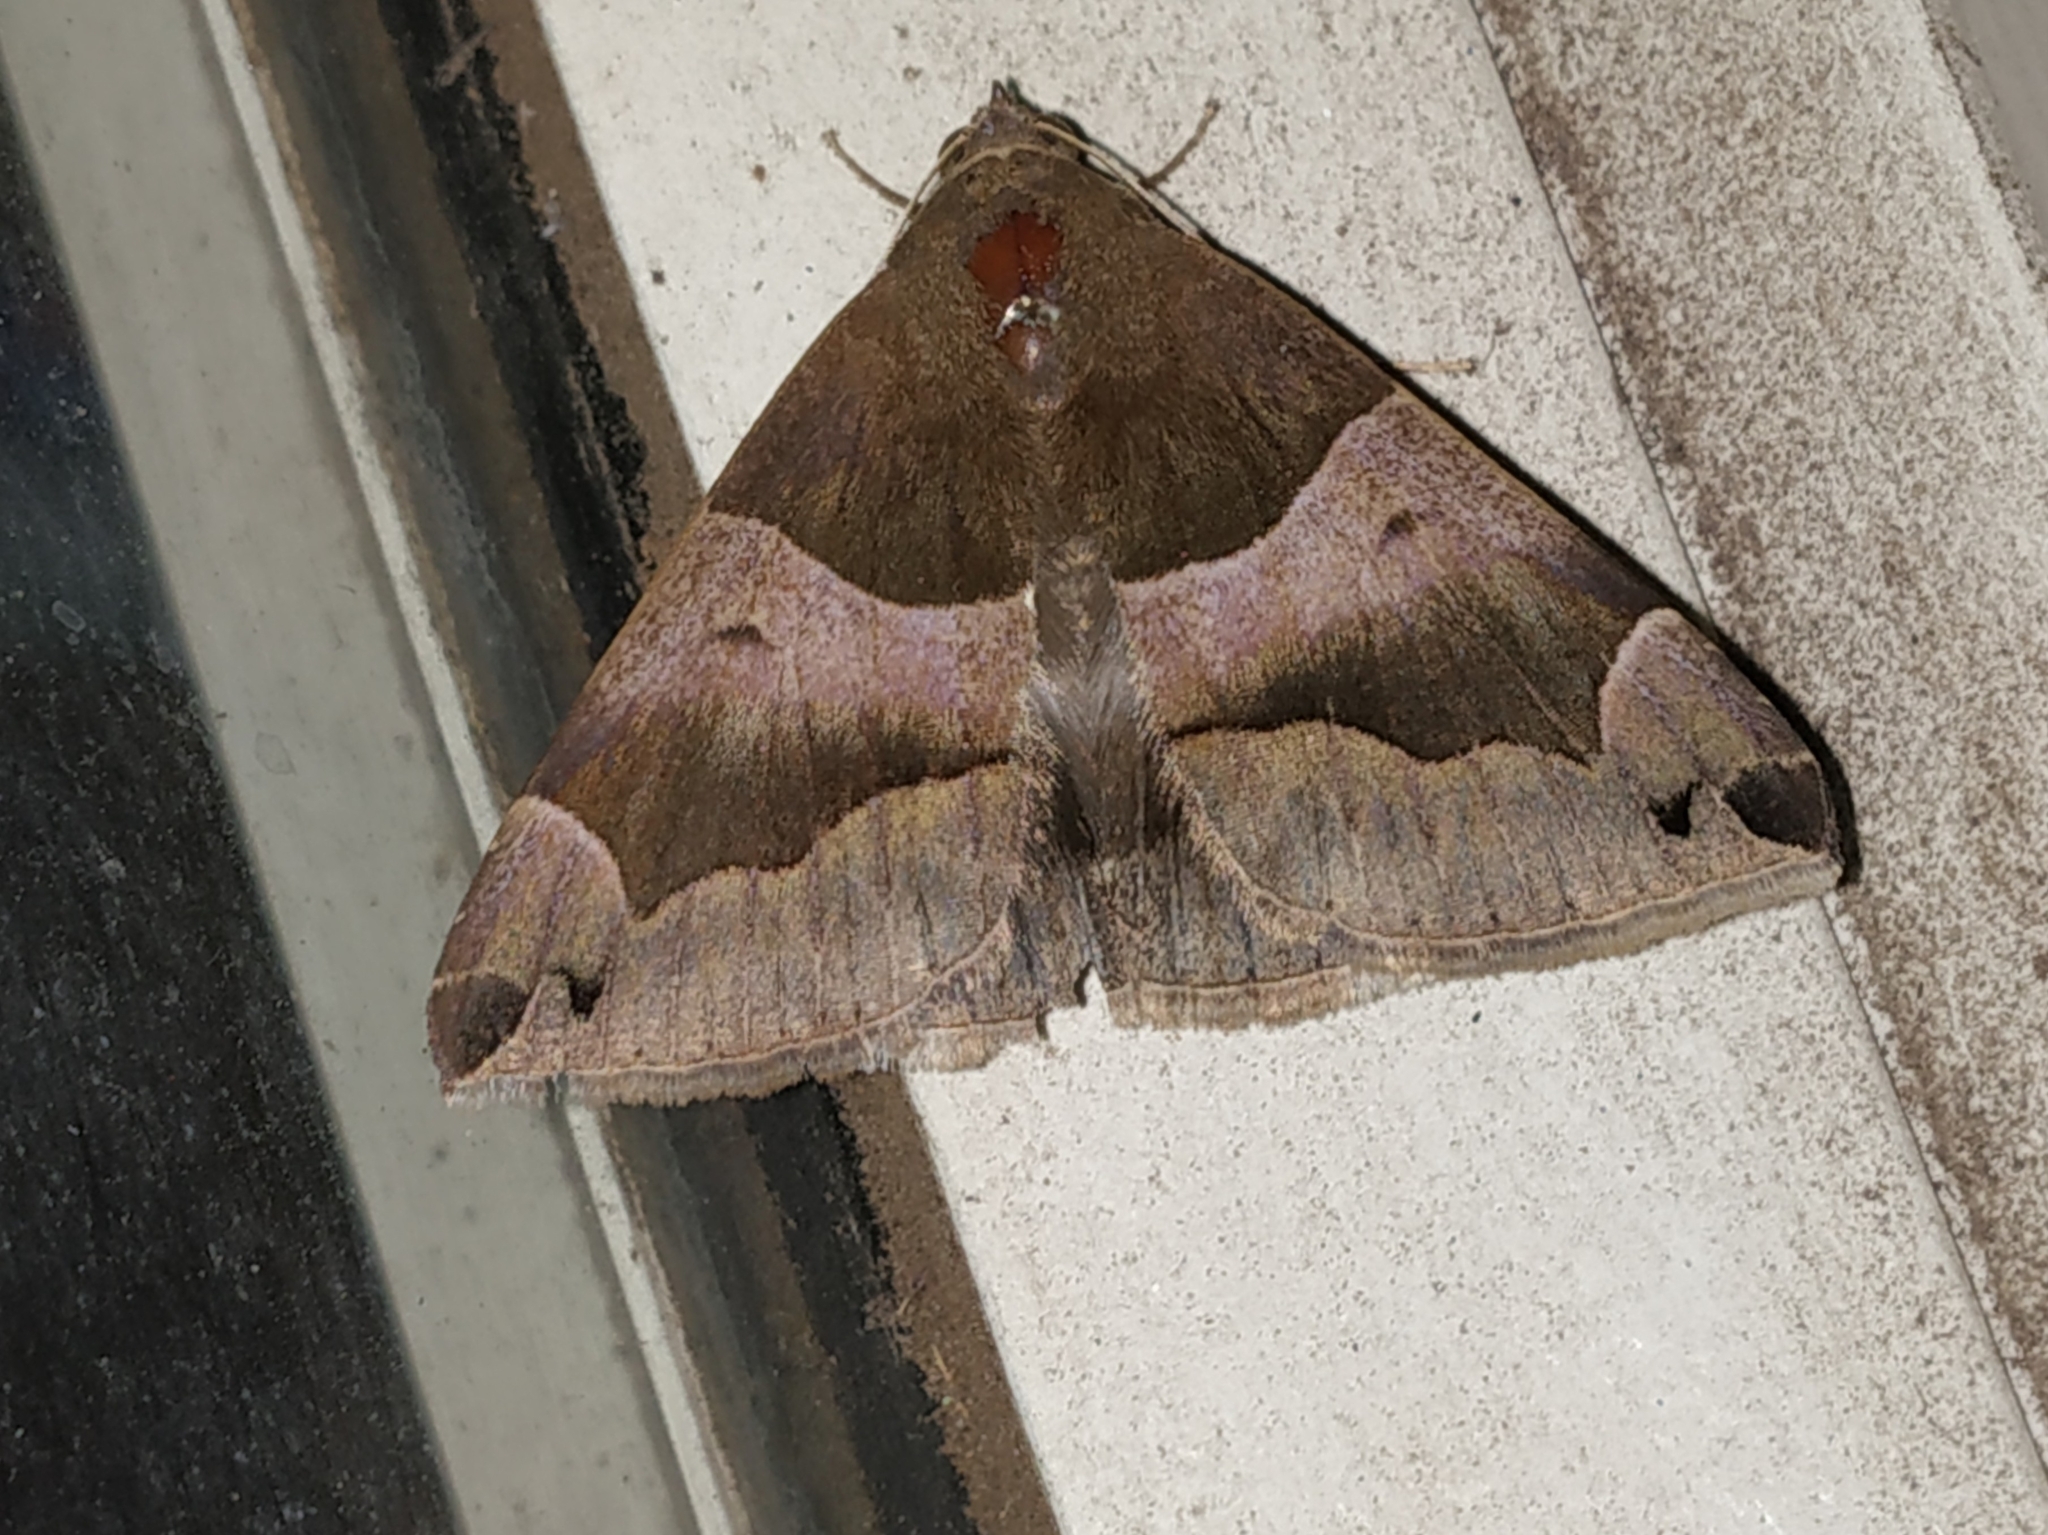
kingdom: Animalia
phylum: Arthropoda
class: Insecta
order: Lepidoptera
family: Erebidae
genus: Dysgonia
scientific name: Dysgonia stuposa
